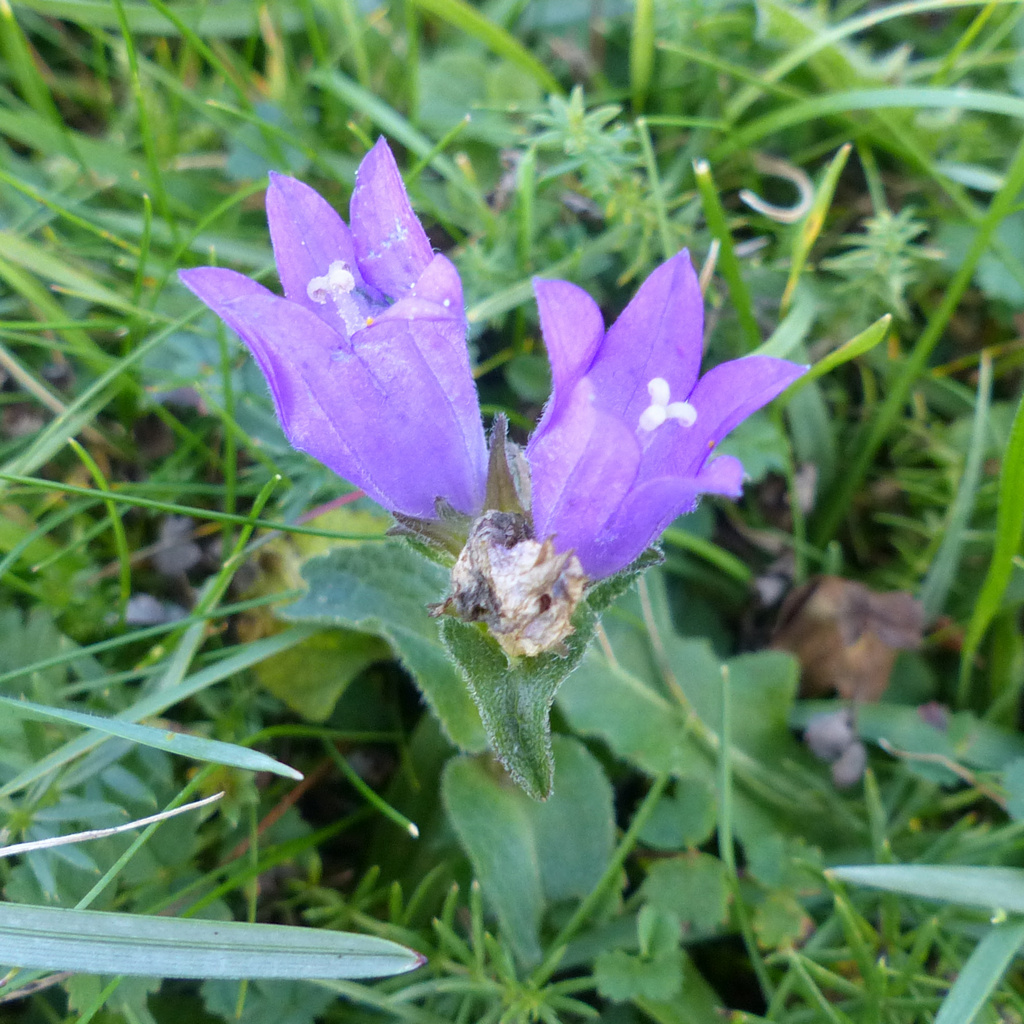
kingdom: Plantae
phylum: Tracheophyta
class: Magnoliopsida
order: Asterales
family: Campanulaceae
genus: Campanula
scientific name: Campanula glomerata
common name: Clustered bellflower
